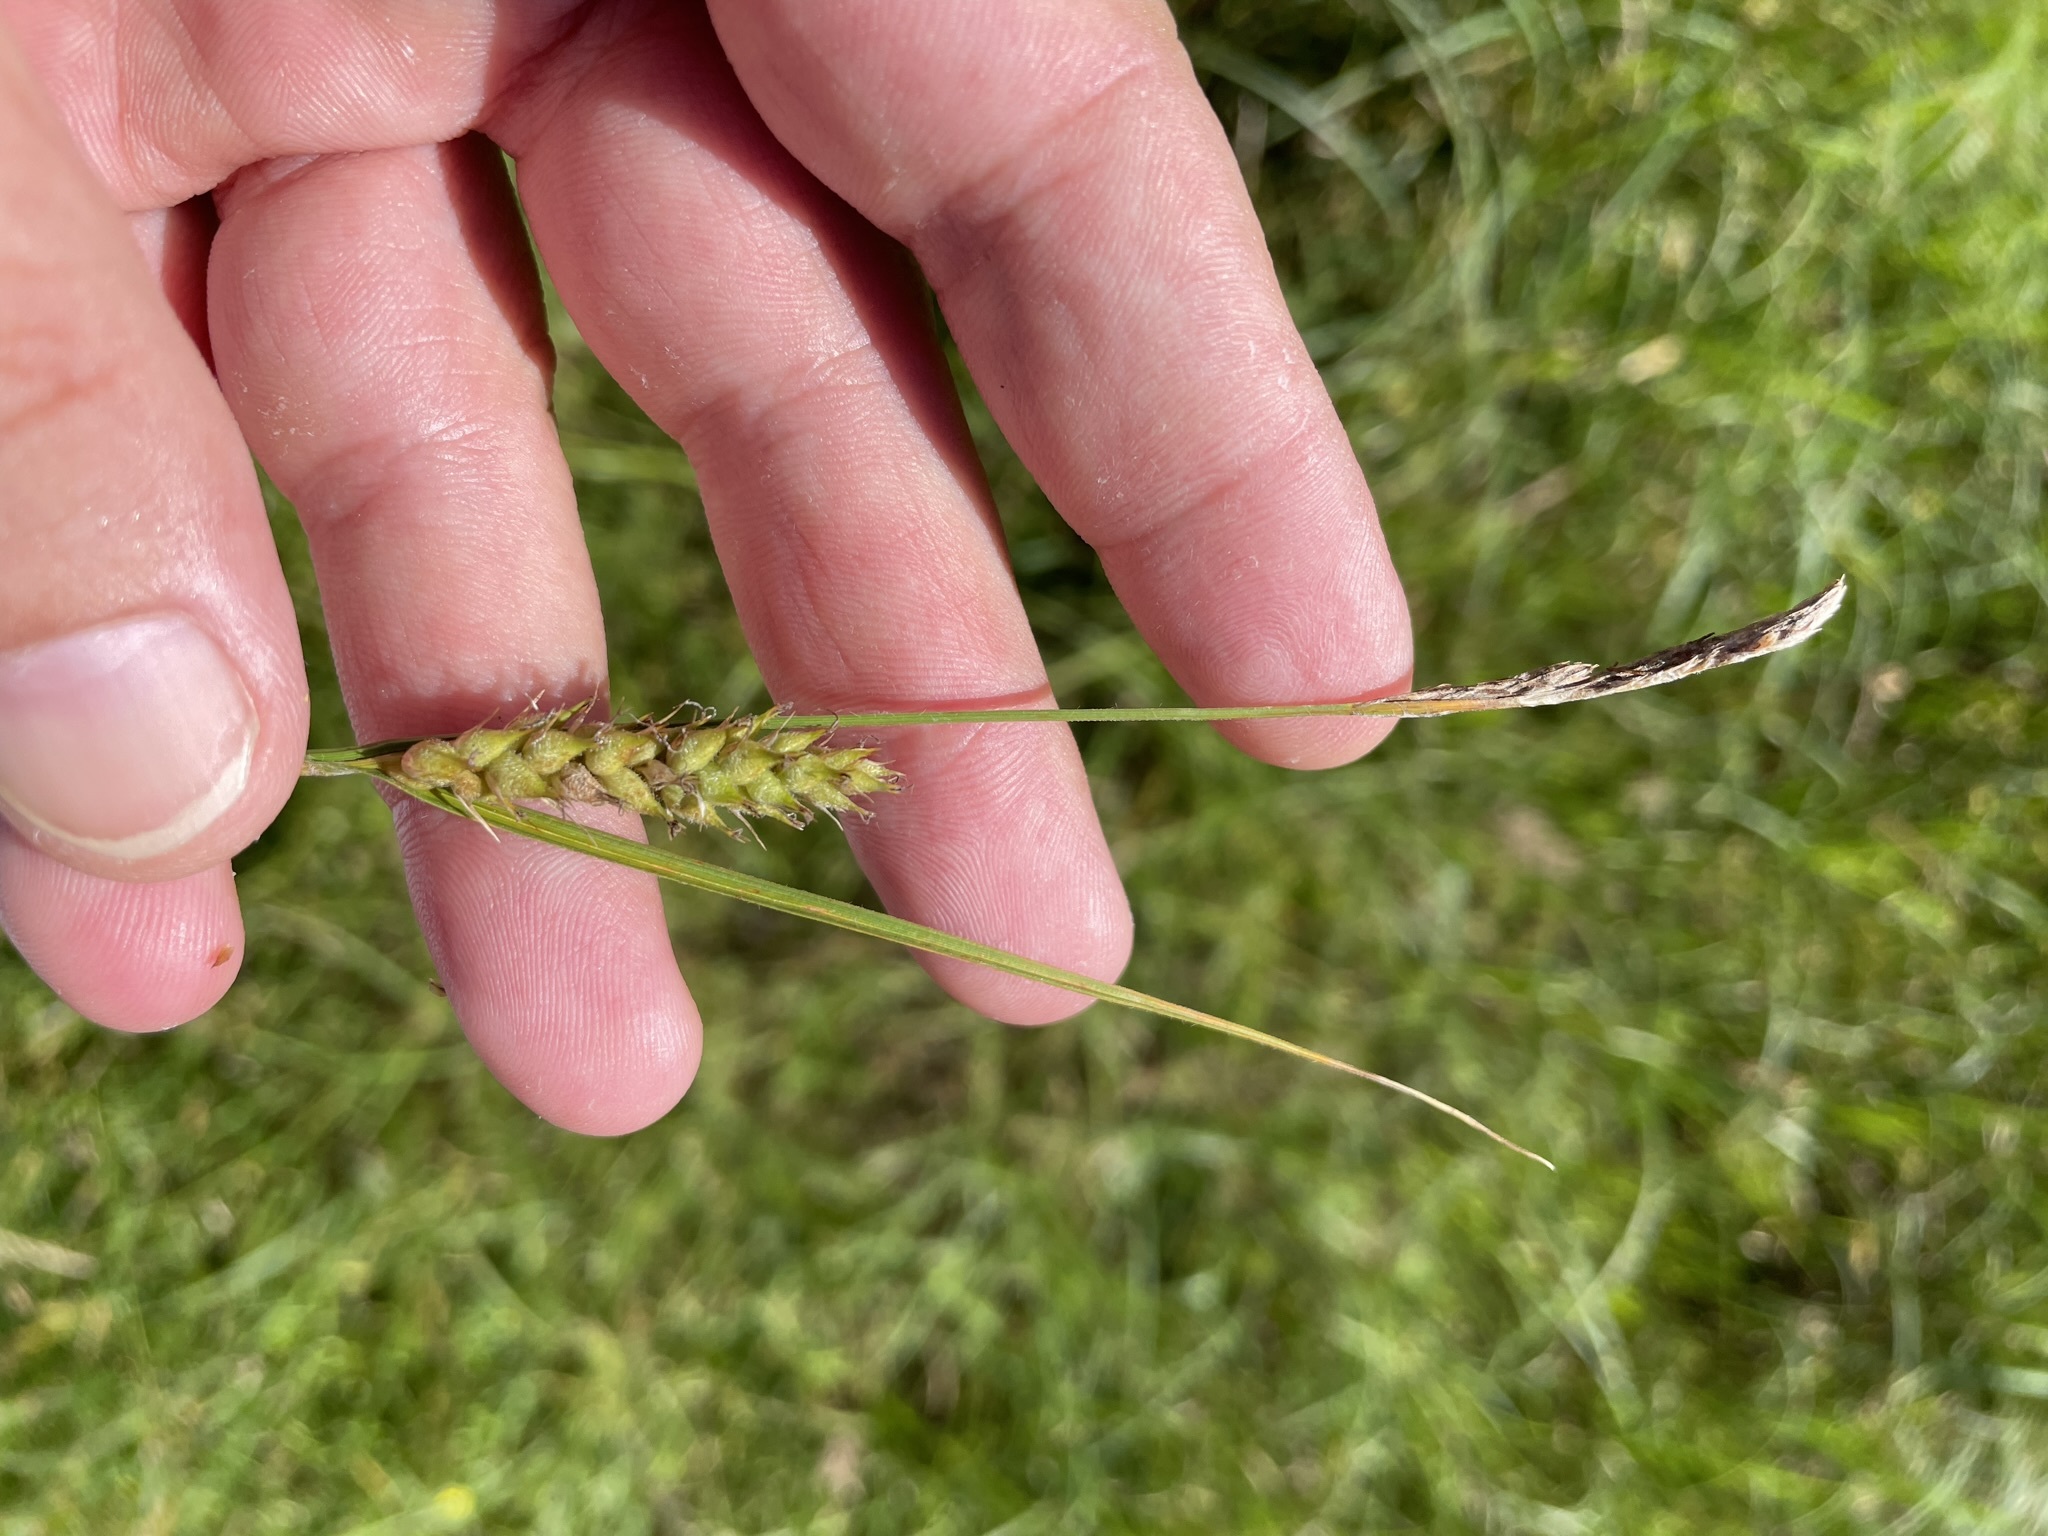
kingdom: Plantae
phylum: Tracheophyta
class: Liliopsida
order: Poales
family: Cyperaceae
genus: Carex
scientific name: Carex hirta
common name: Hairy sedge
